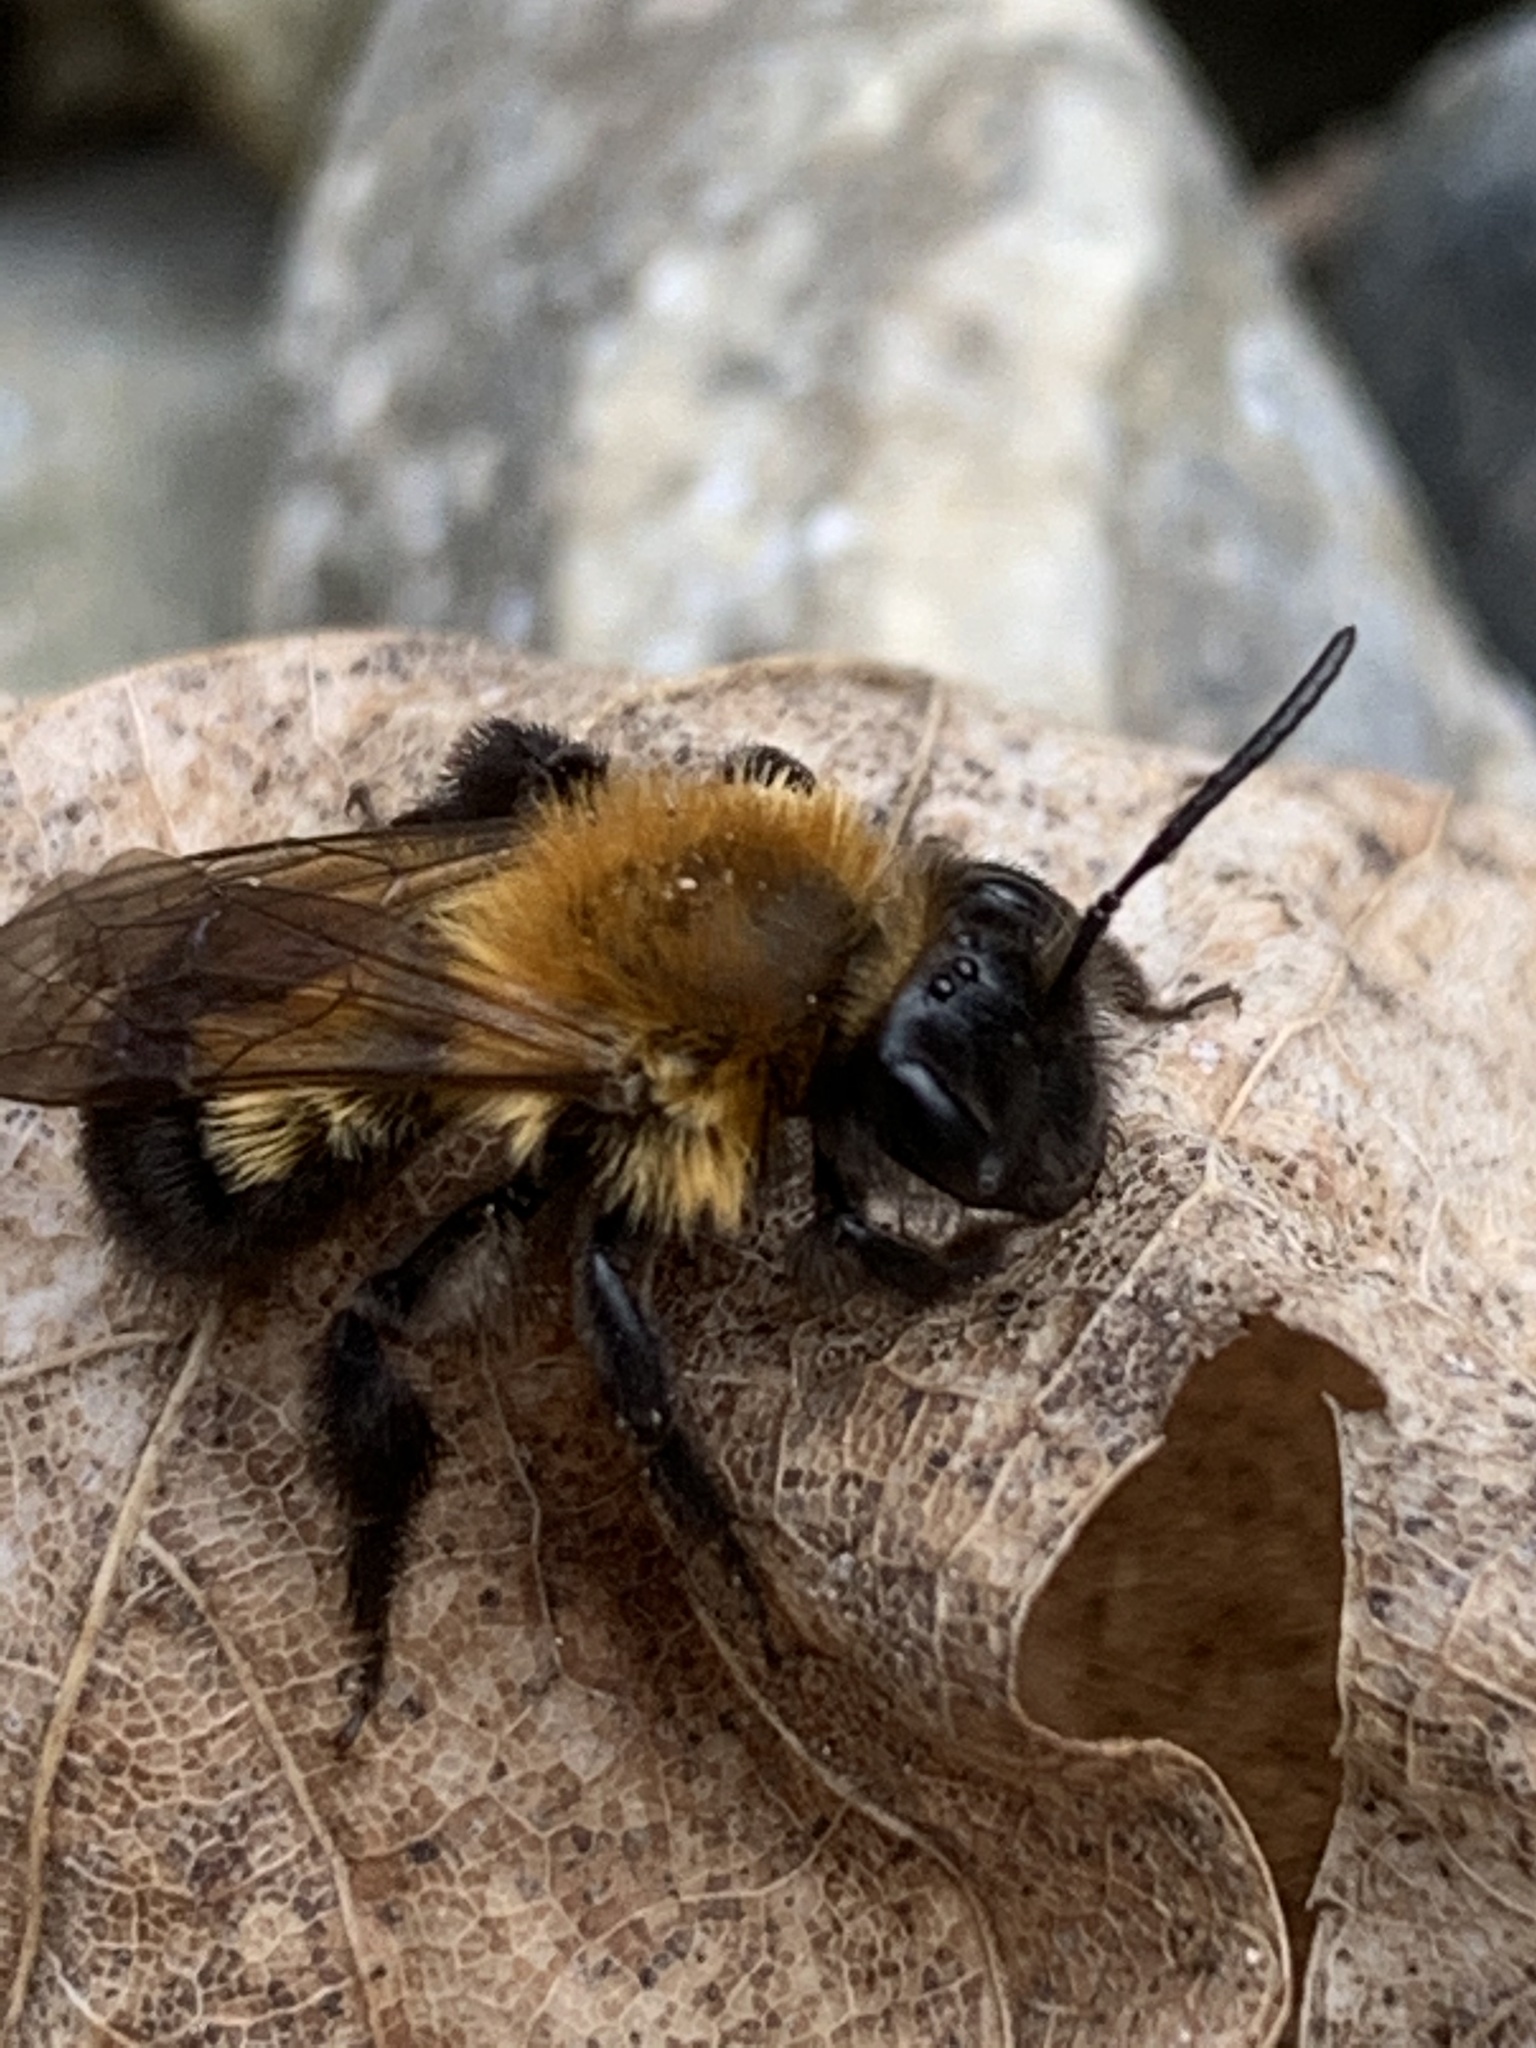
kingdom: Animalia
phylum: Arthropoda
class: Insecta
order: Hymenoptera
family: Andrenidae
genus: Andrena
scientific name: Andrena milwaukeensis
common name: Milwaukee mining bee
